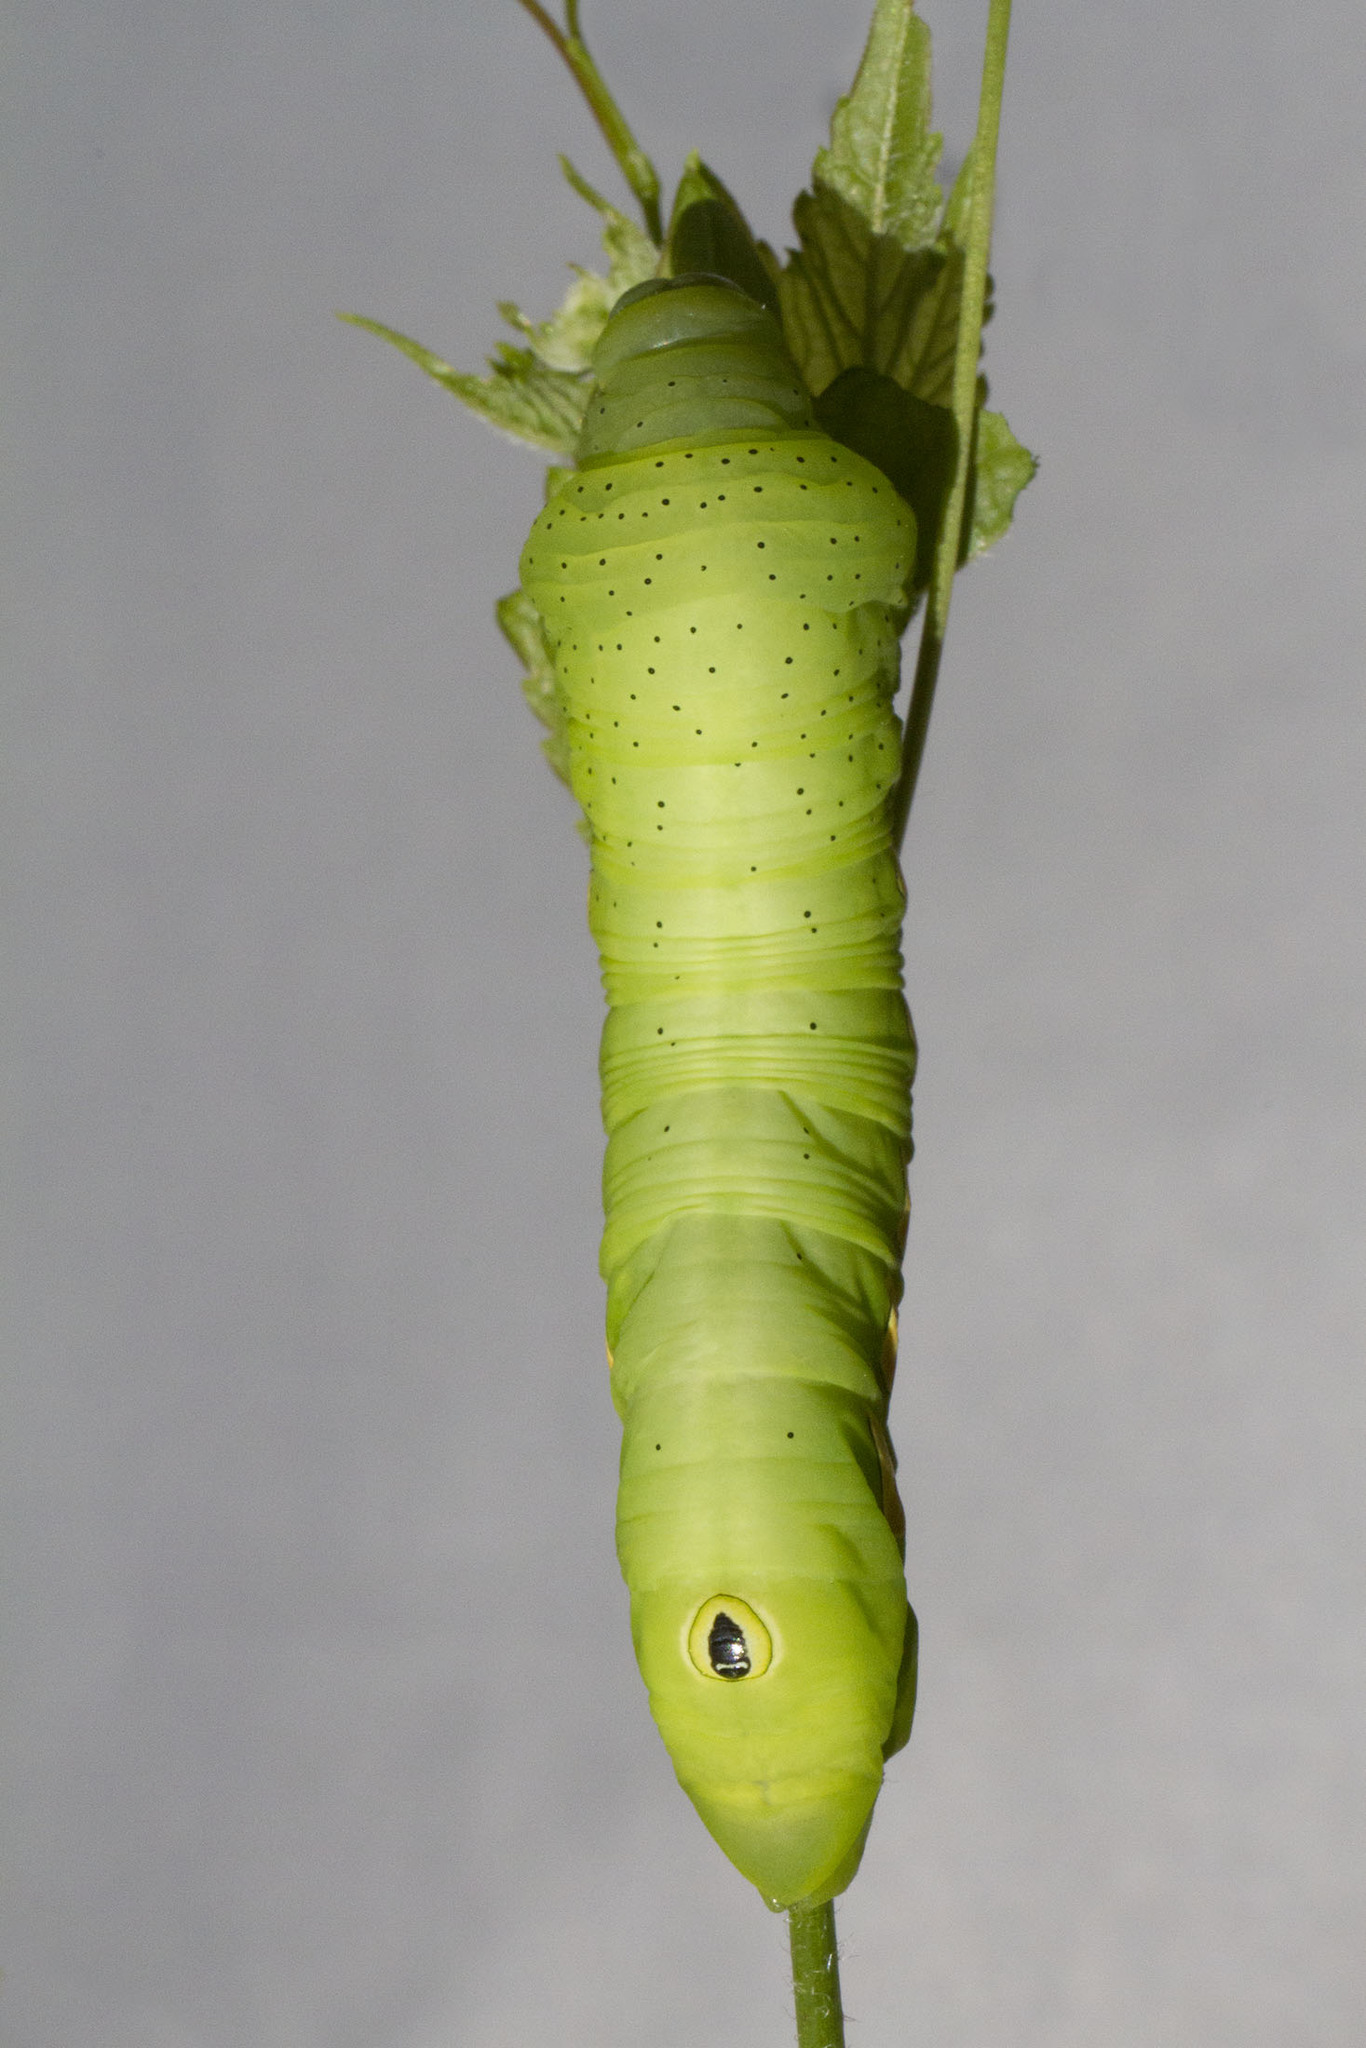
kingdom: Animalia
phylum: Arthropoda
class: Insecta
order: Lepidoptera
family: Sphingidae
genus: Eumorpha
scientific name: Eumorpha pandorus
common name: Pandora sphinx
